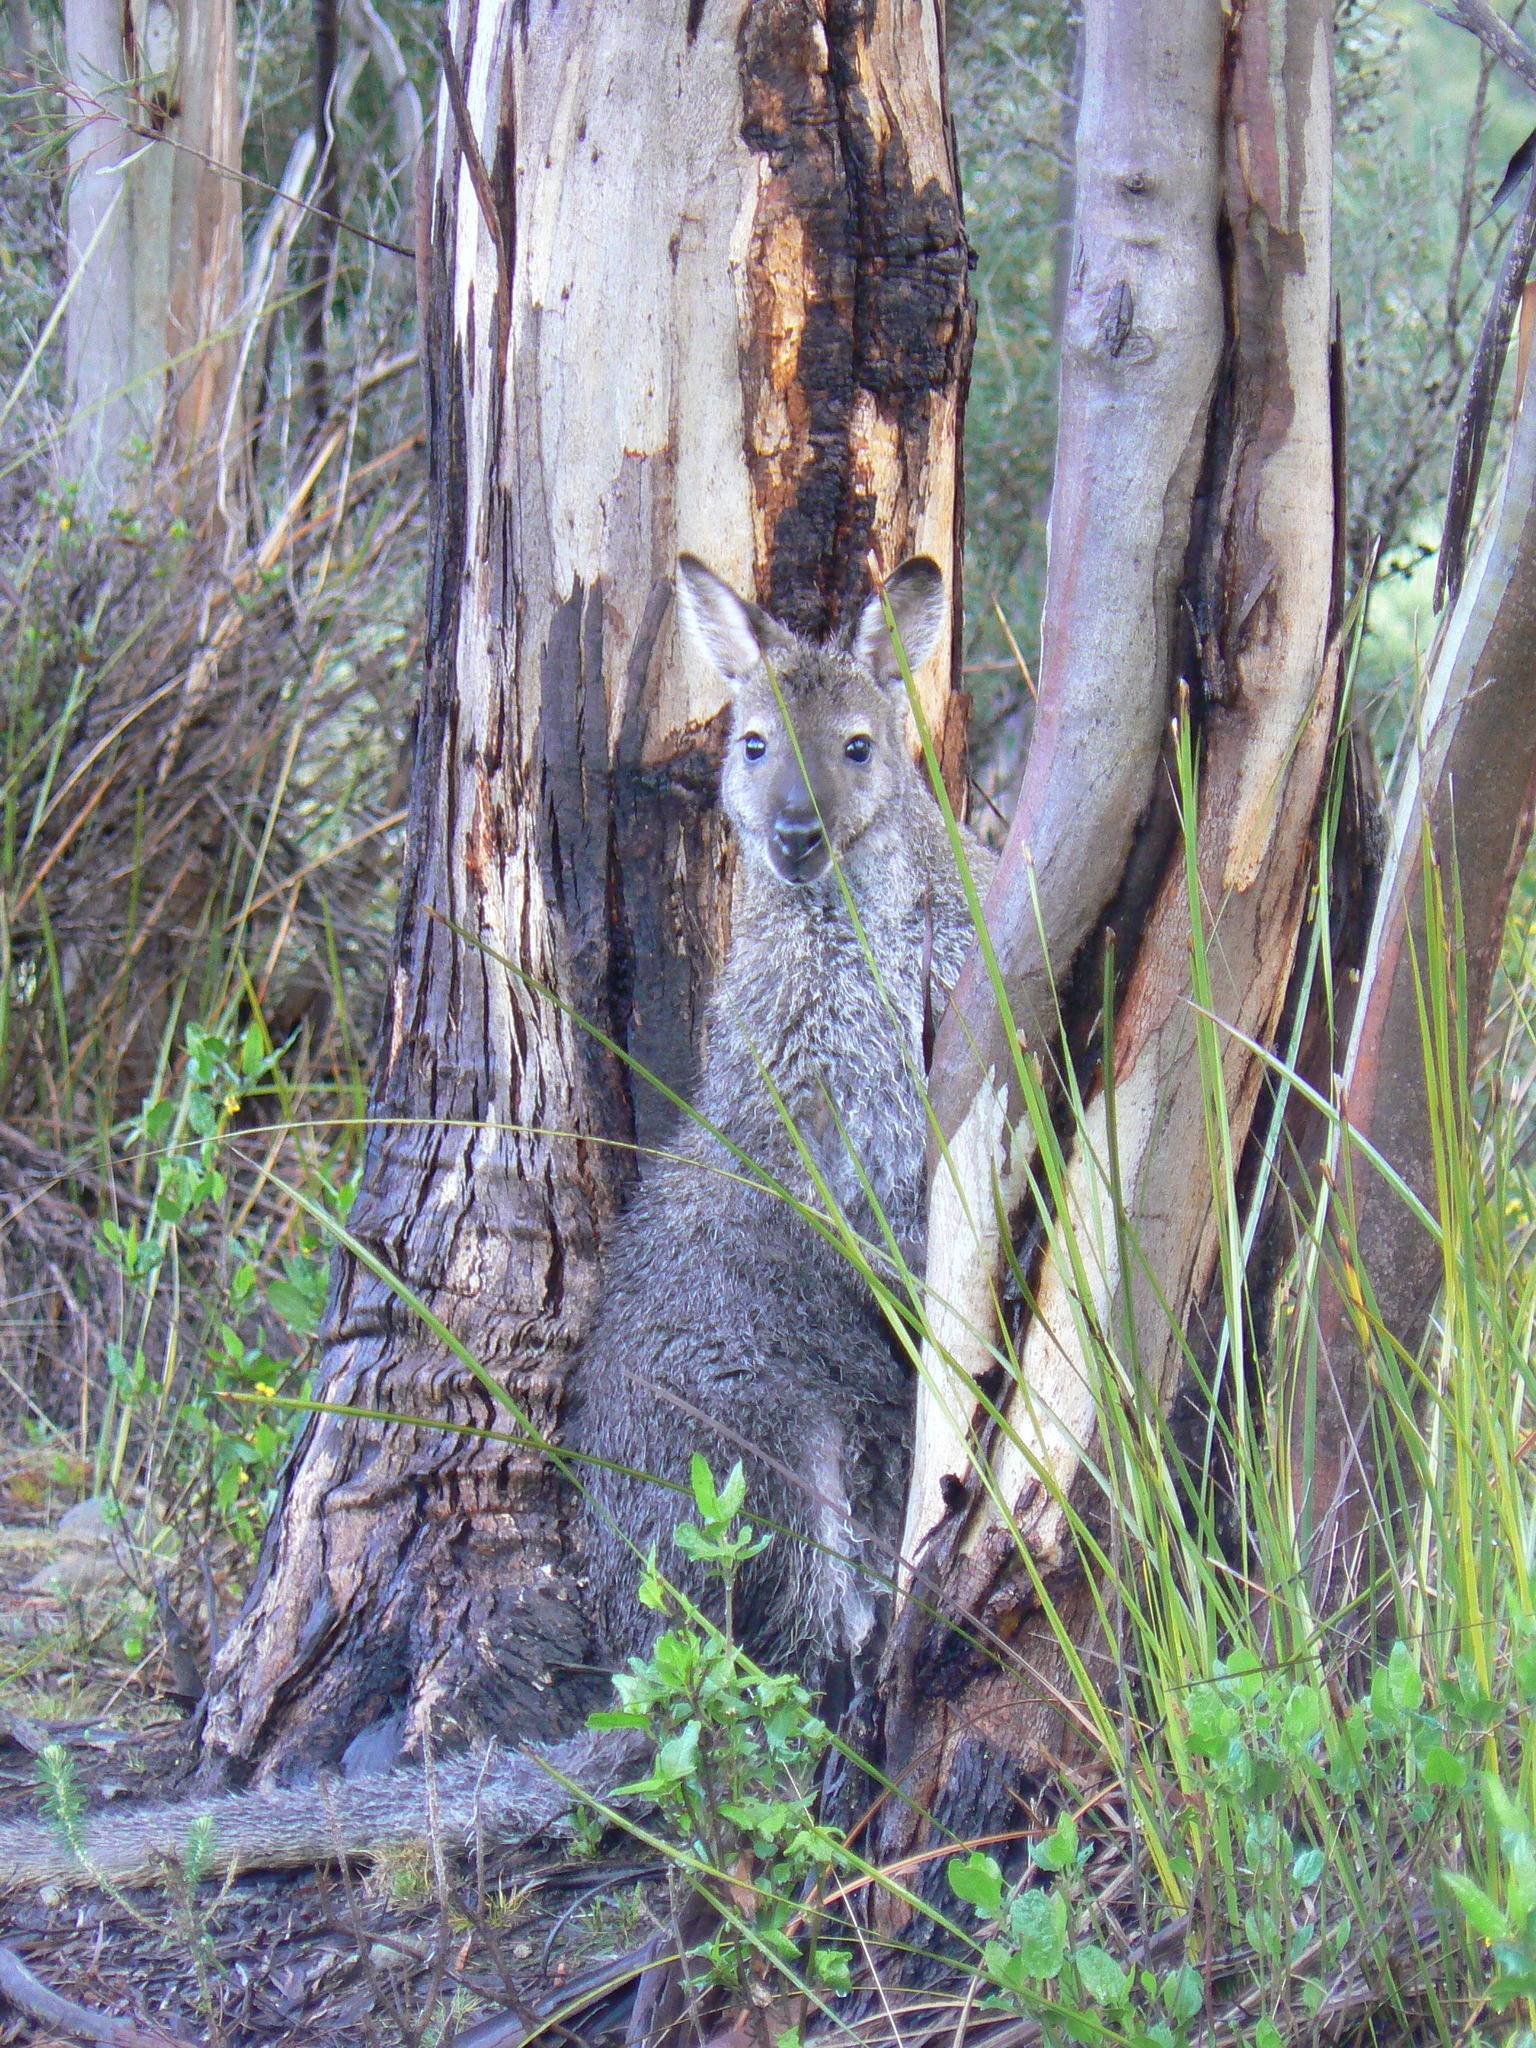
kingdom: Animalia
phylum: Chordata
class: Mammalia
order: Diprotodontia
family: Macropodidae
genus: Notamacropus
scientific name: Notamacropus rufogriseus
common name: Red-necked wallaby
